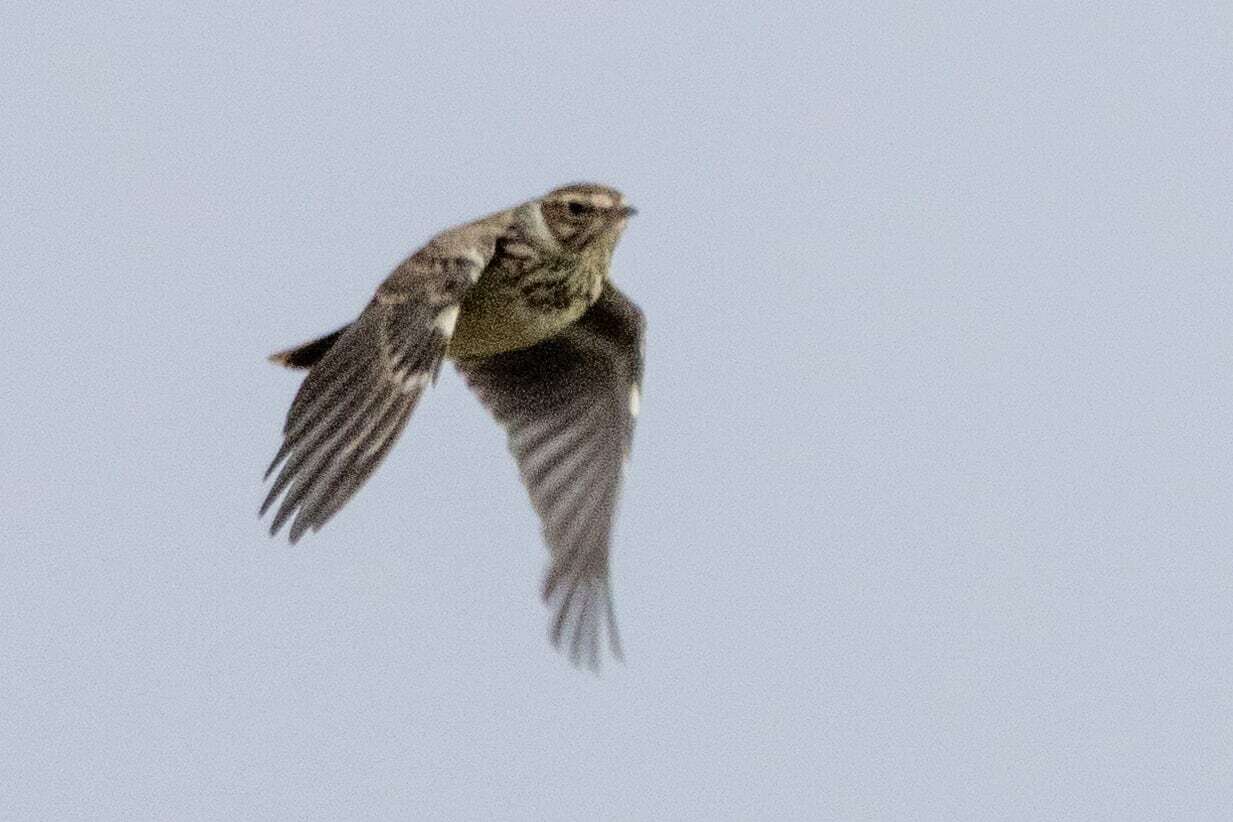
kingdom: Animalia
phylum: Chordata
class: Aves
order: Passeriformes
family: Alaudidae
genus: Lullula
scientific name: Lullula arborea
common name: Woodlark
